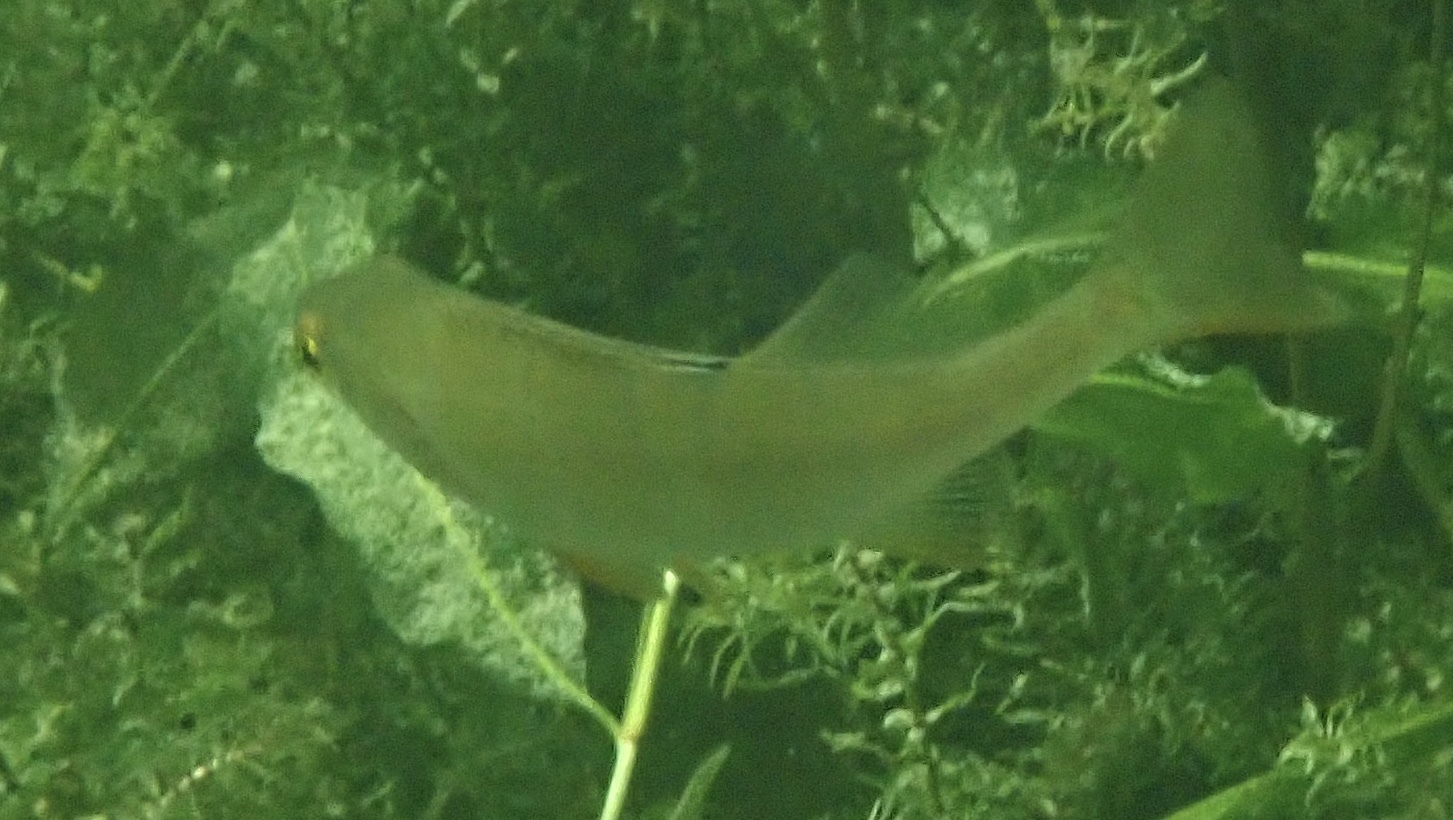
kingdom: Animalia
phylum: Chordata
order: Perciformes
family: Percidae
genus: Perca
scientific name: Perca fluviatilis
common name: Perch
